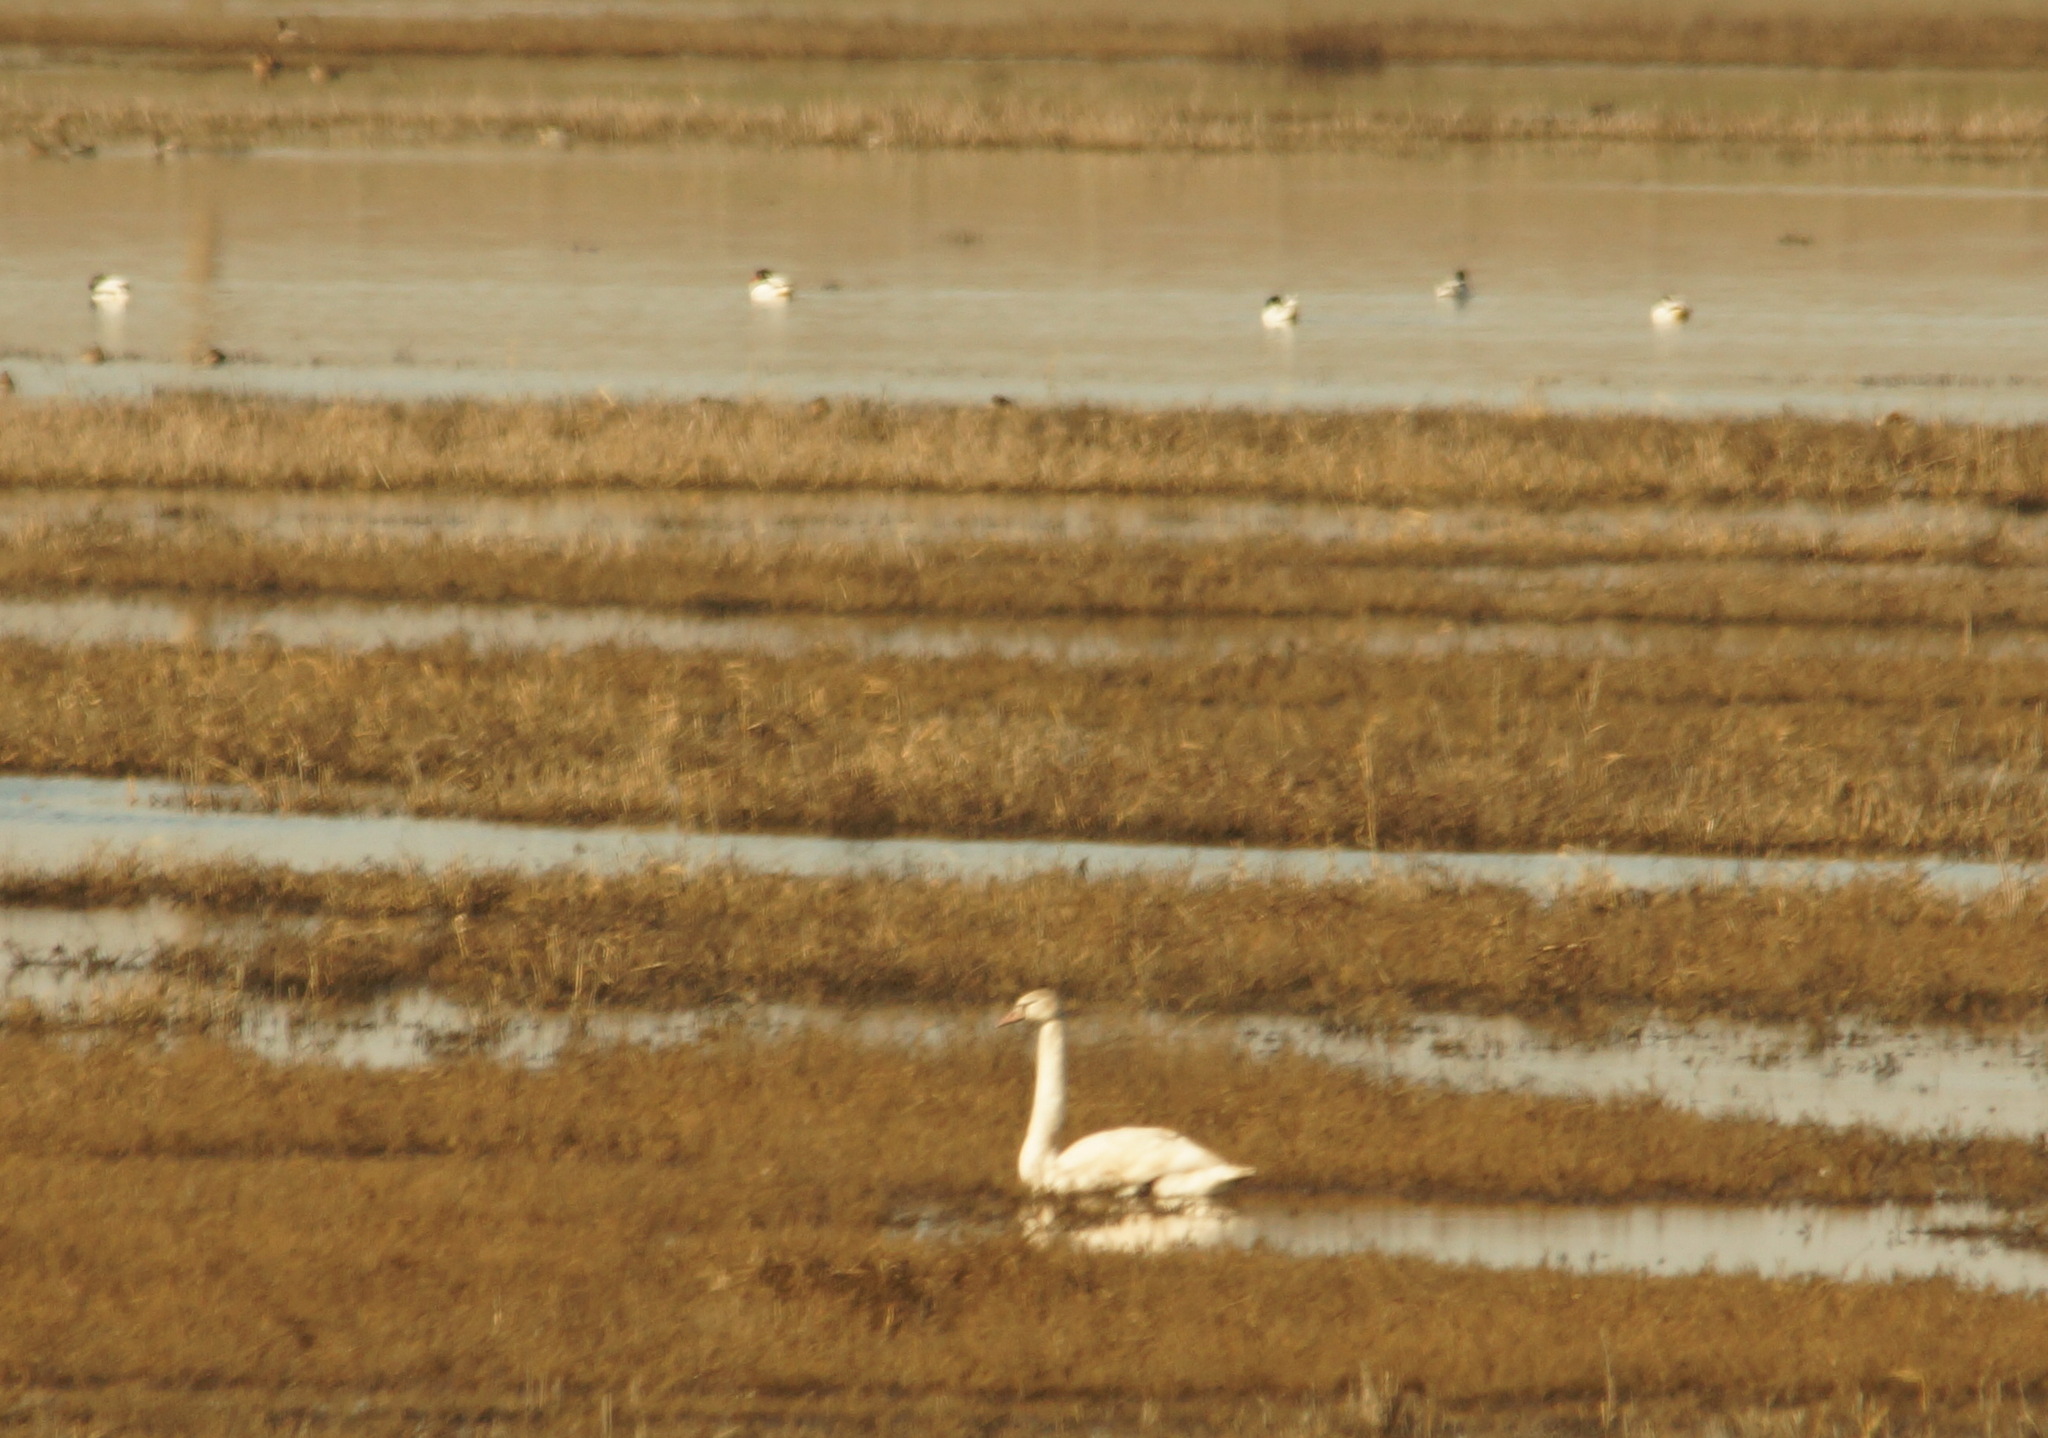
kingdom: Animalia
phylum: Chordata
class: Aves
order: Anseriformes
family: Anatidae
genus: Cygnus
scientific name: Cygnus olor
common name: Mute swan
